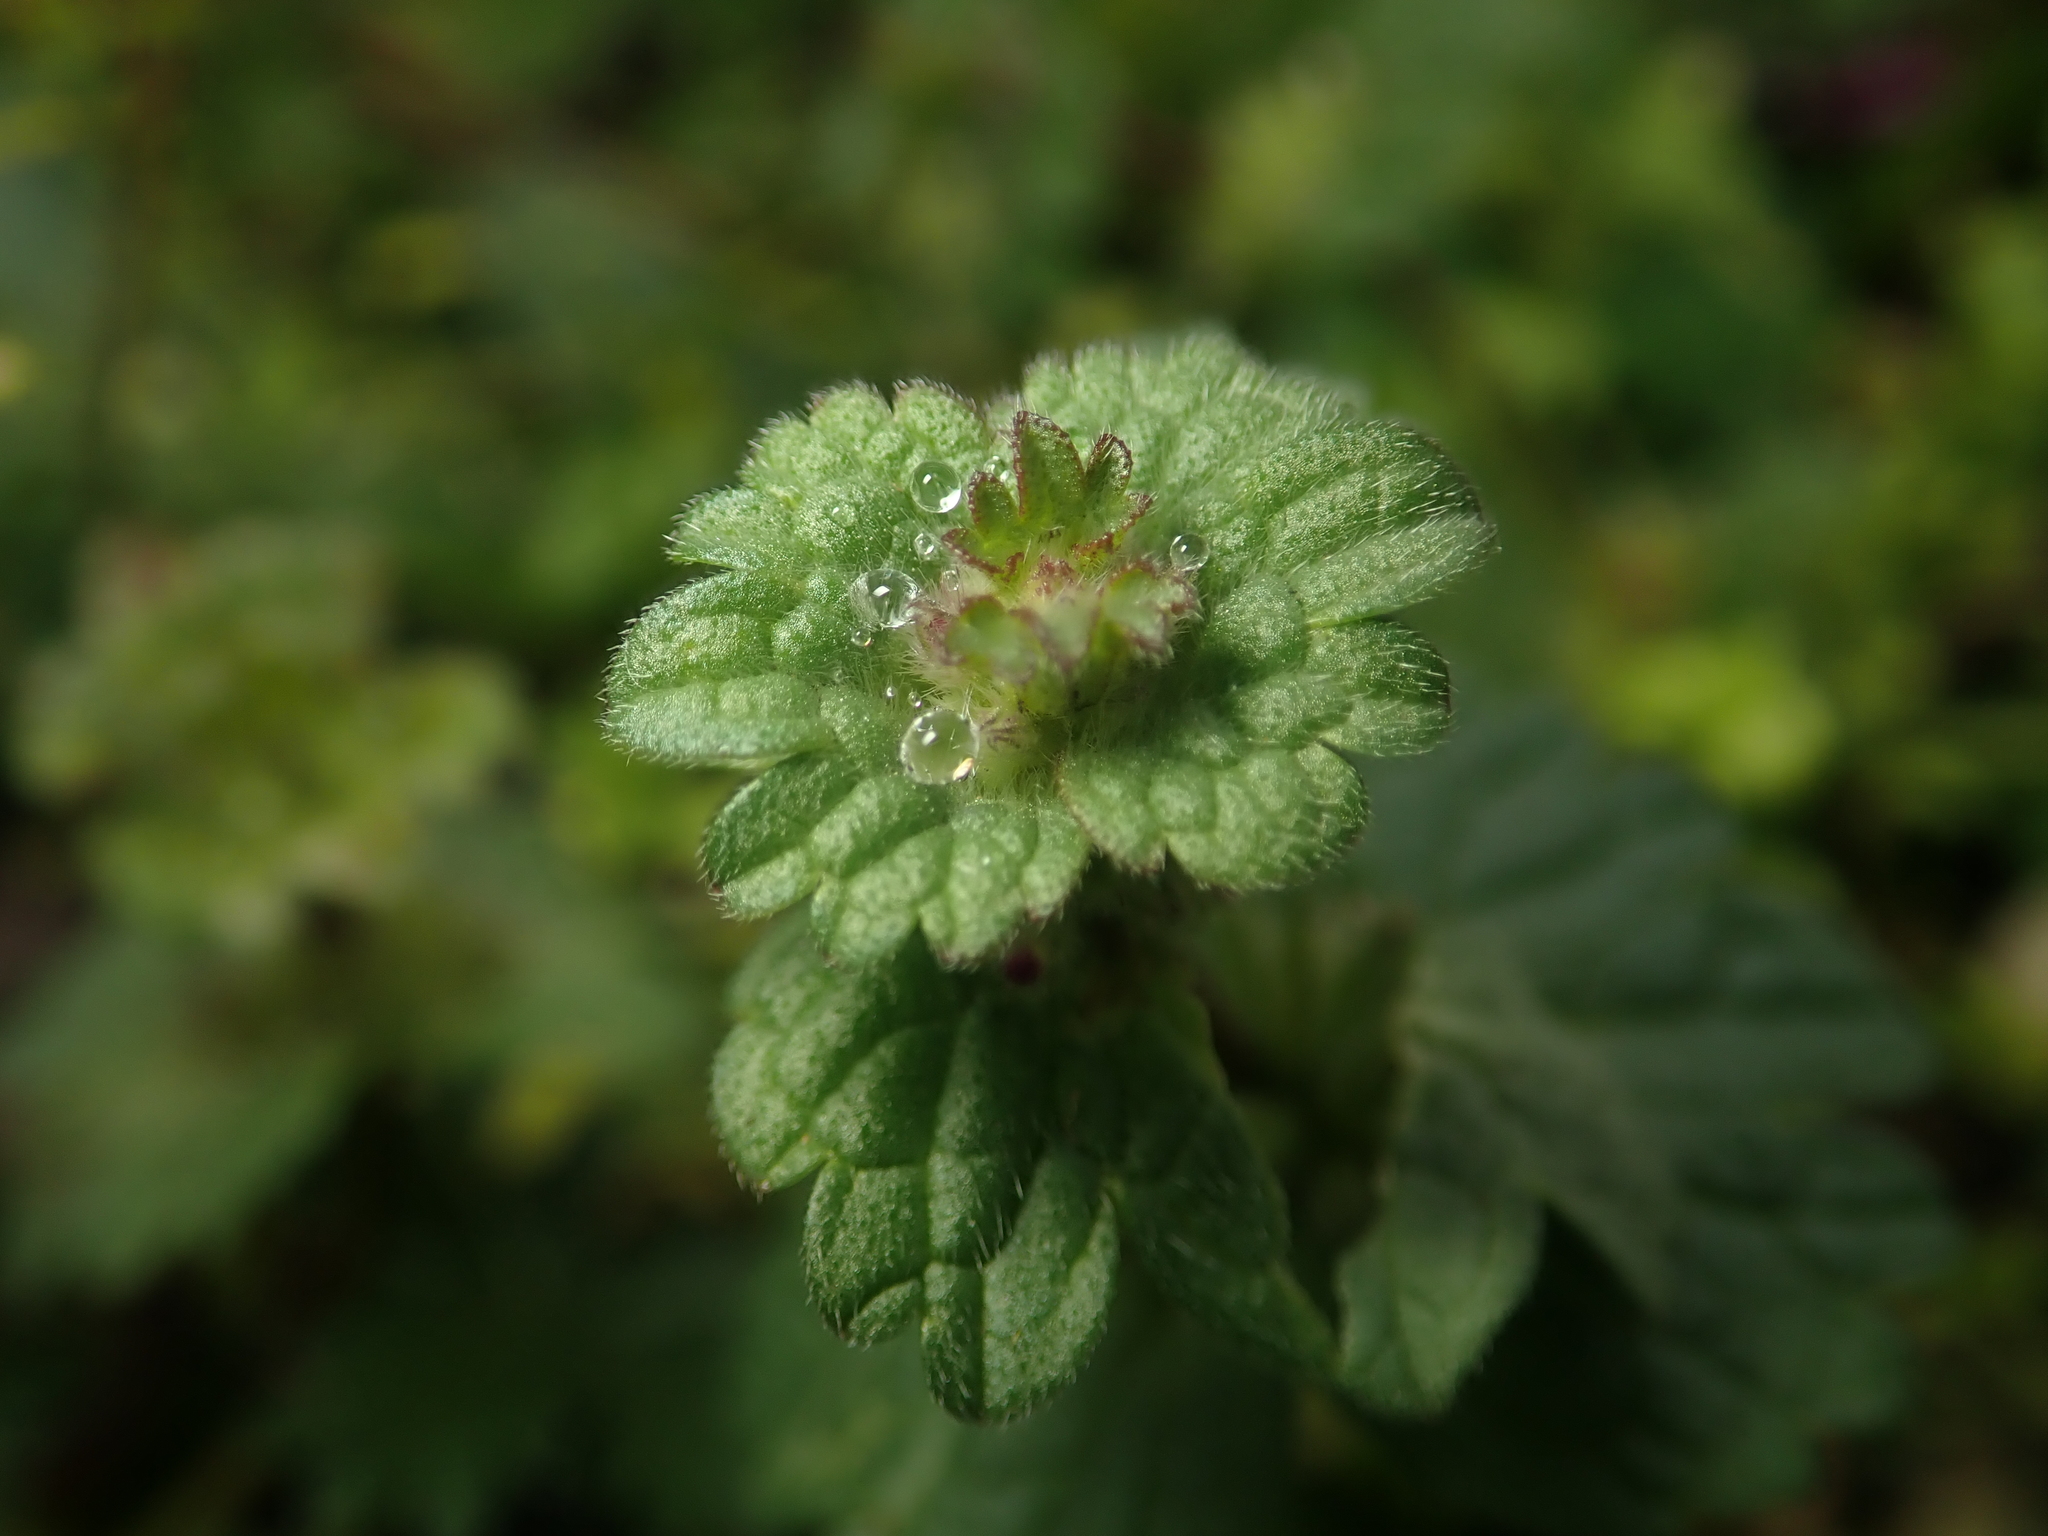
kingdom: Plantae
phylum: Tracheophyta
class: Magnoliopsida
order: Lamiales
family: Lamiaceae
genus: Lamium
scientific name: Lamium amplexicaule
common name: Henbit dead-nettle
